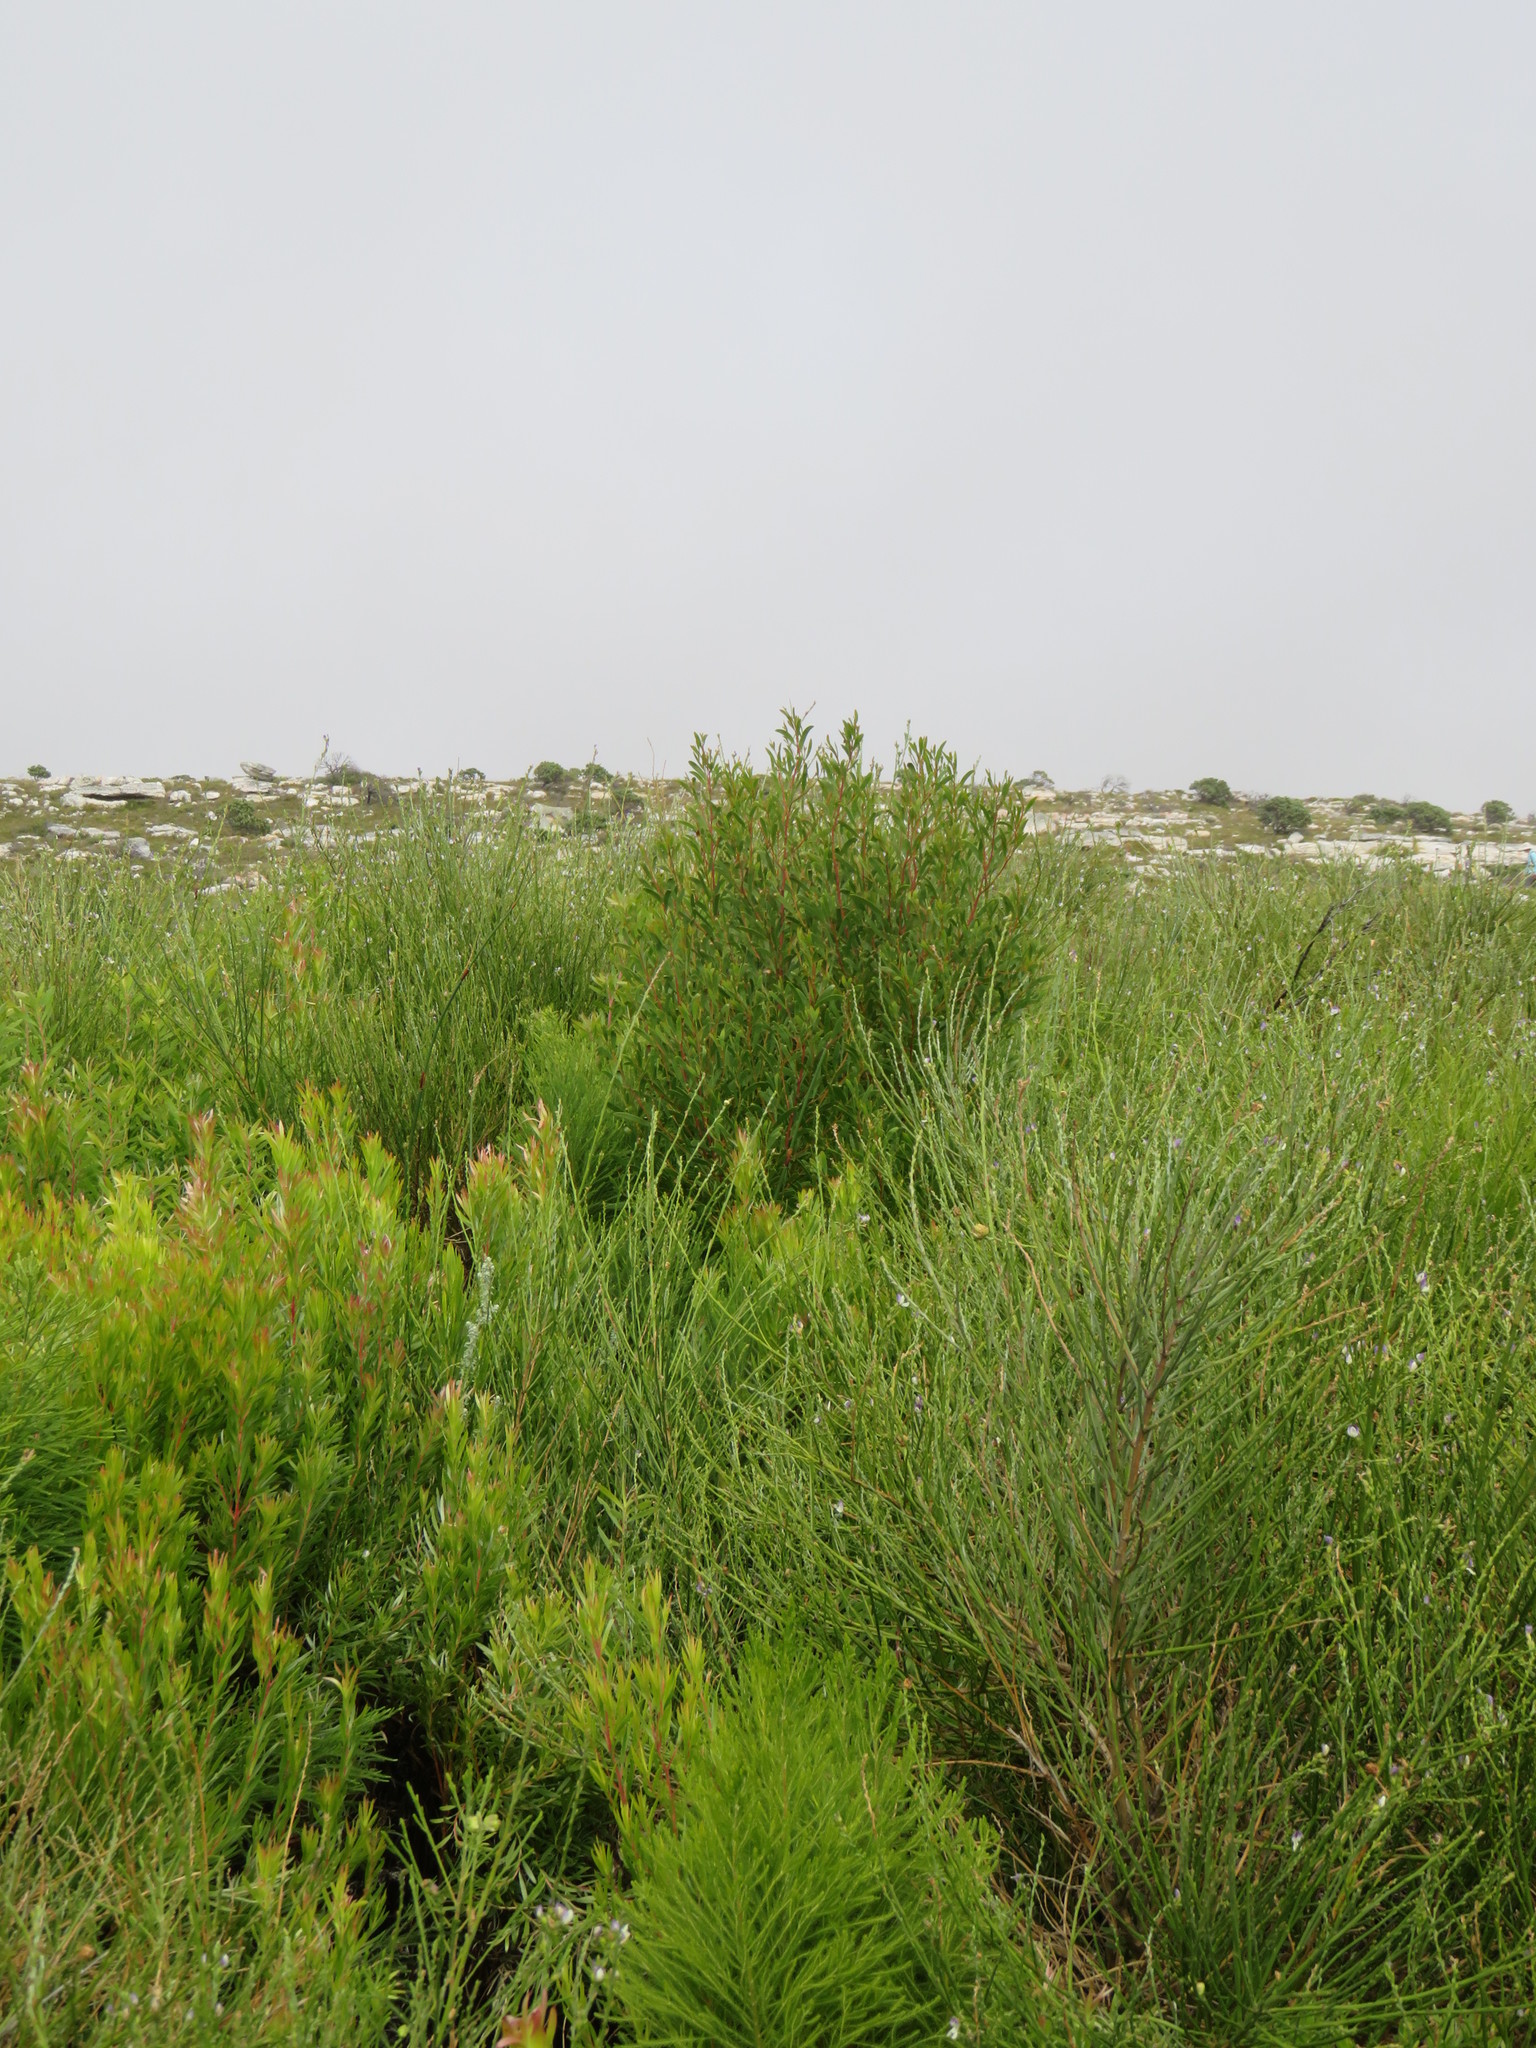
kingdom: Plantae
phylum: Tracheophyta
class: Magnoliopsida
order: Fabales
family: Fabaceae
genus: Acacia
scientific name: Acacia cyclops
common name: Coastal wattle
